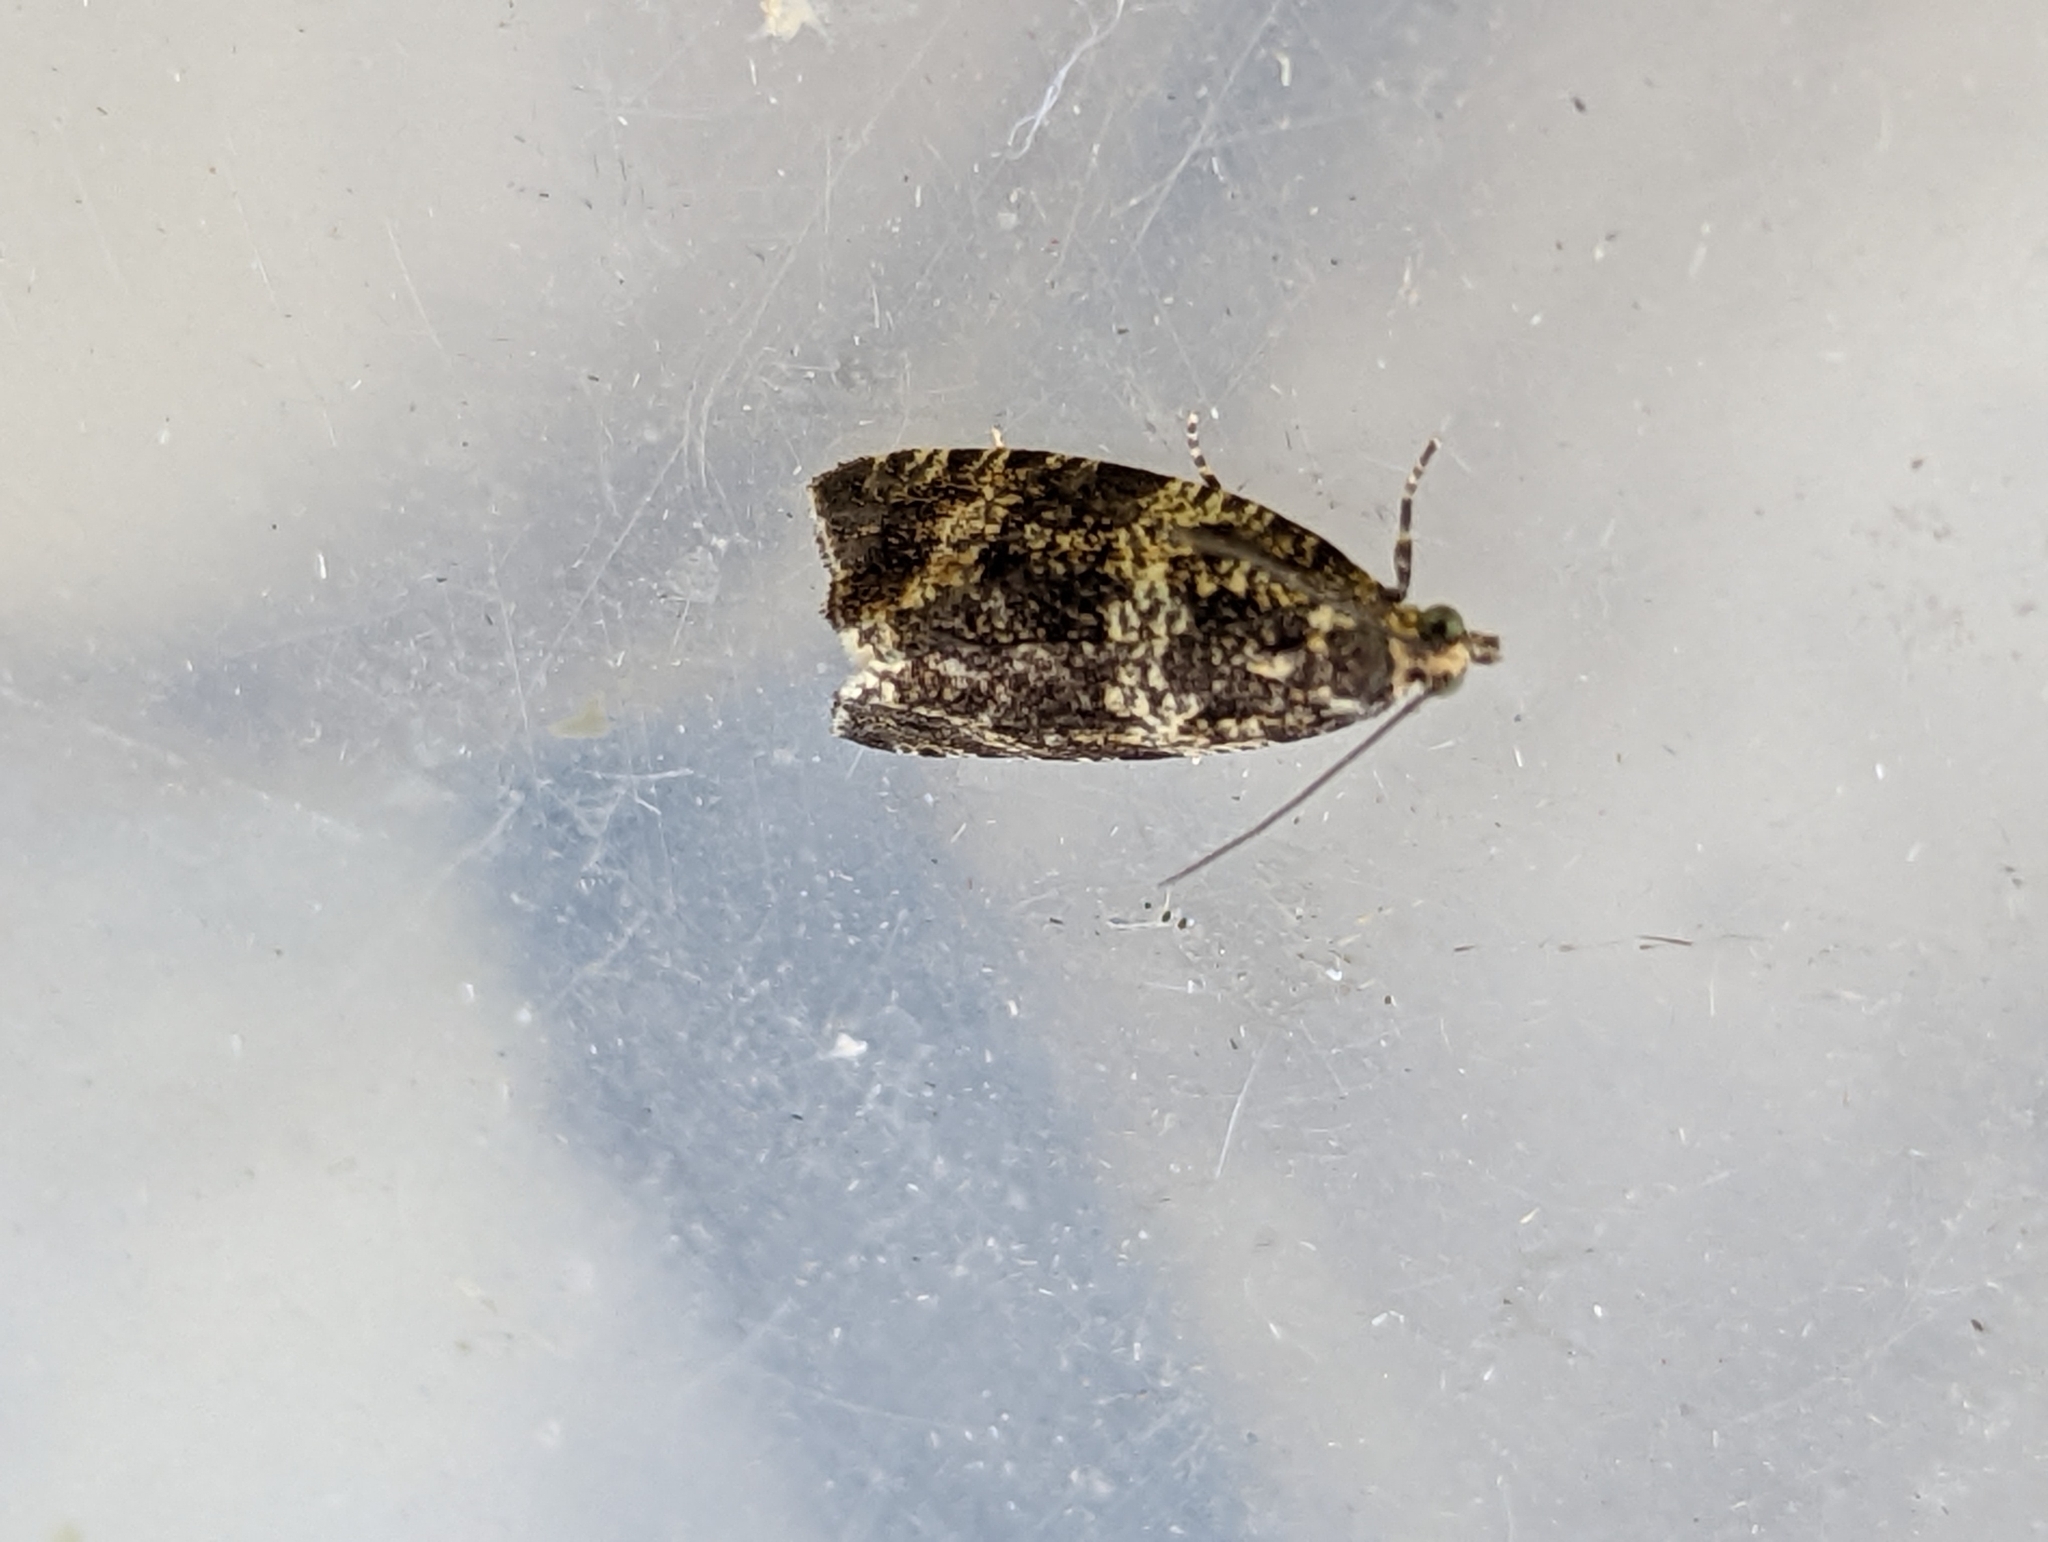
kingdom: Animalia
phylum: Arthropoda
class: Insecta
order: Lepidoptera
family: Tortricidae
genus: Syricoris
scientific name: Syricoris lacunana
